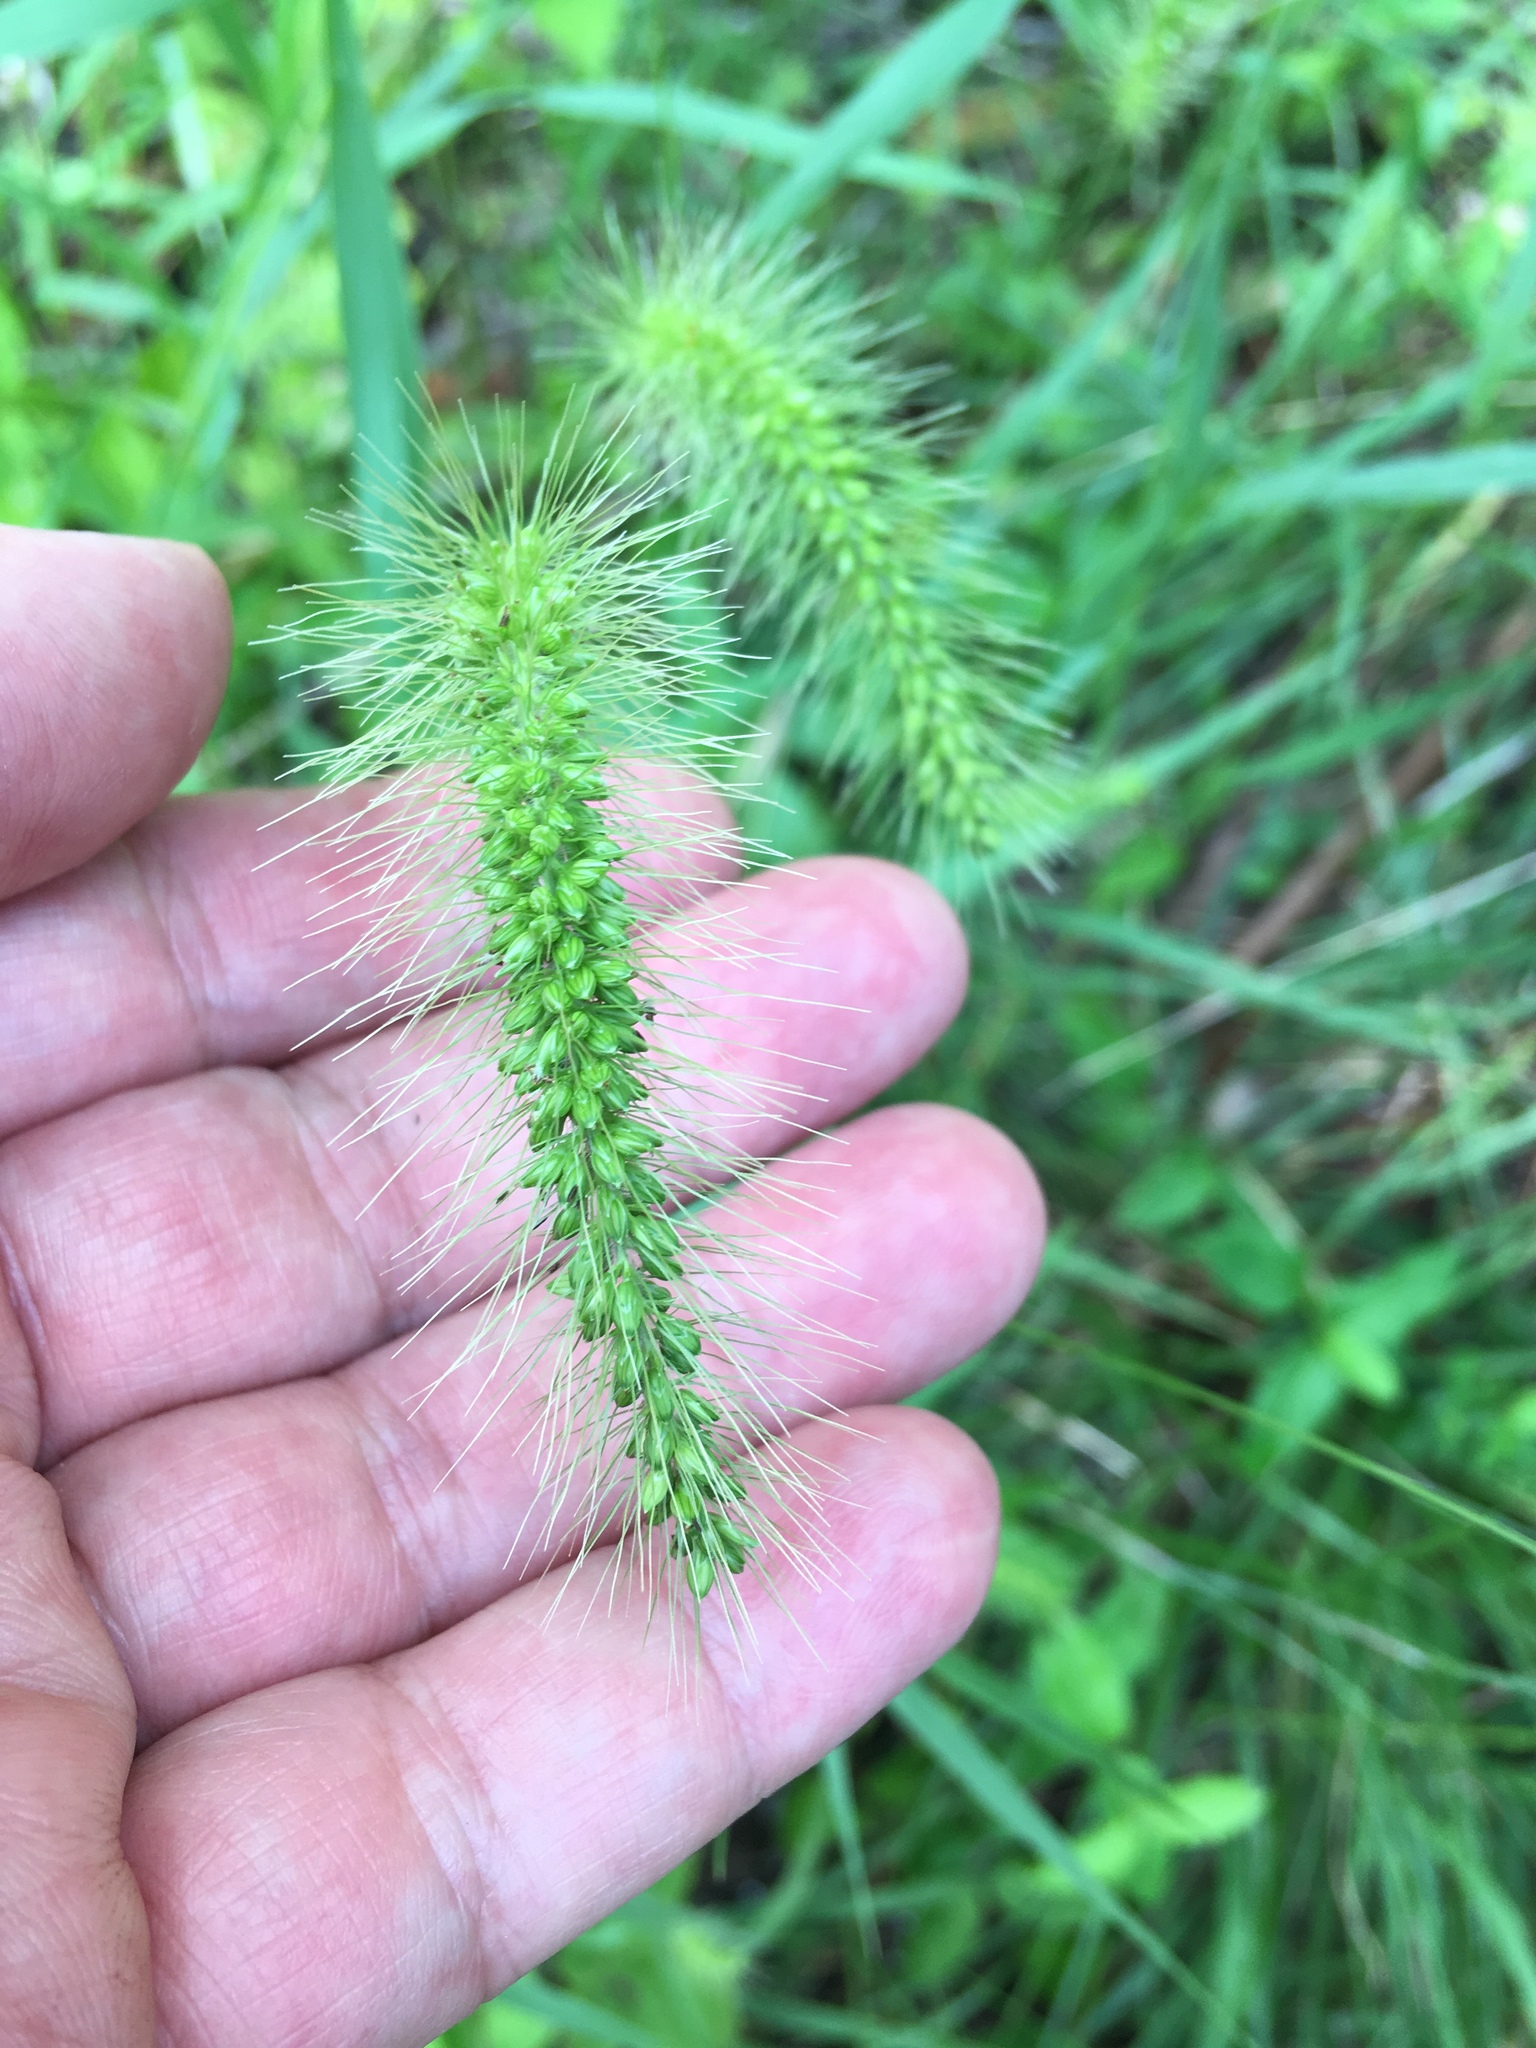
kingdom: Plantae
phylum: Tracheophyta
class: Liliopsida
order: Poales
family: Poaceae
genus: Setaria
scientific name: Setaria faberi
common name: Nodding bristle-grass
